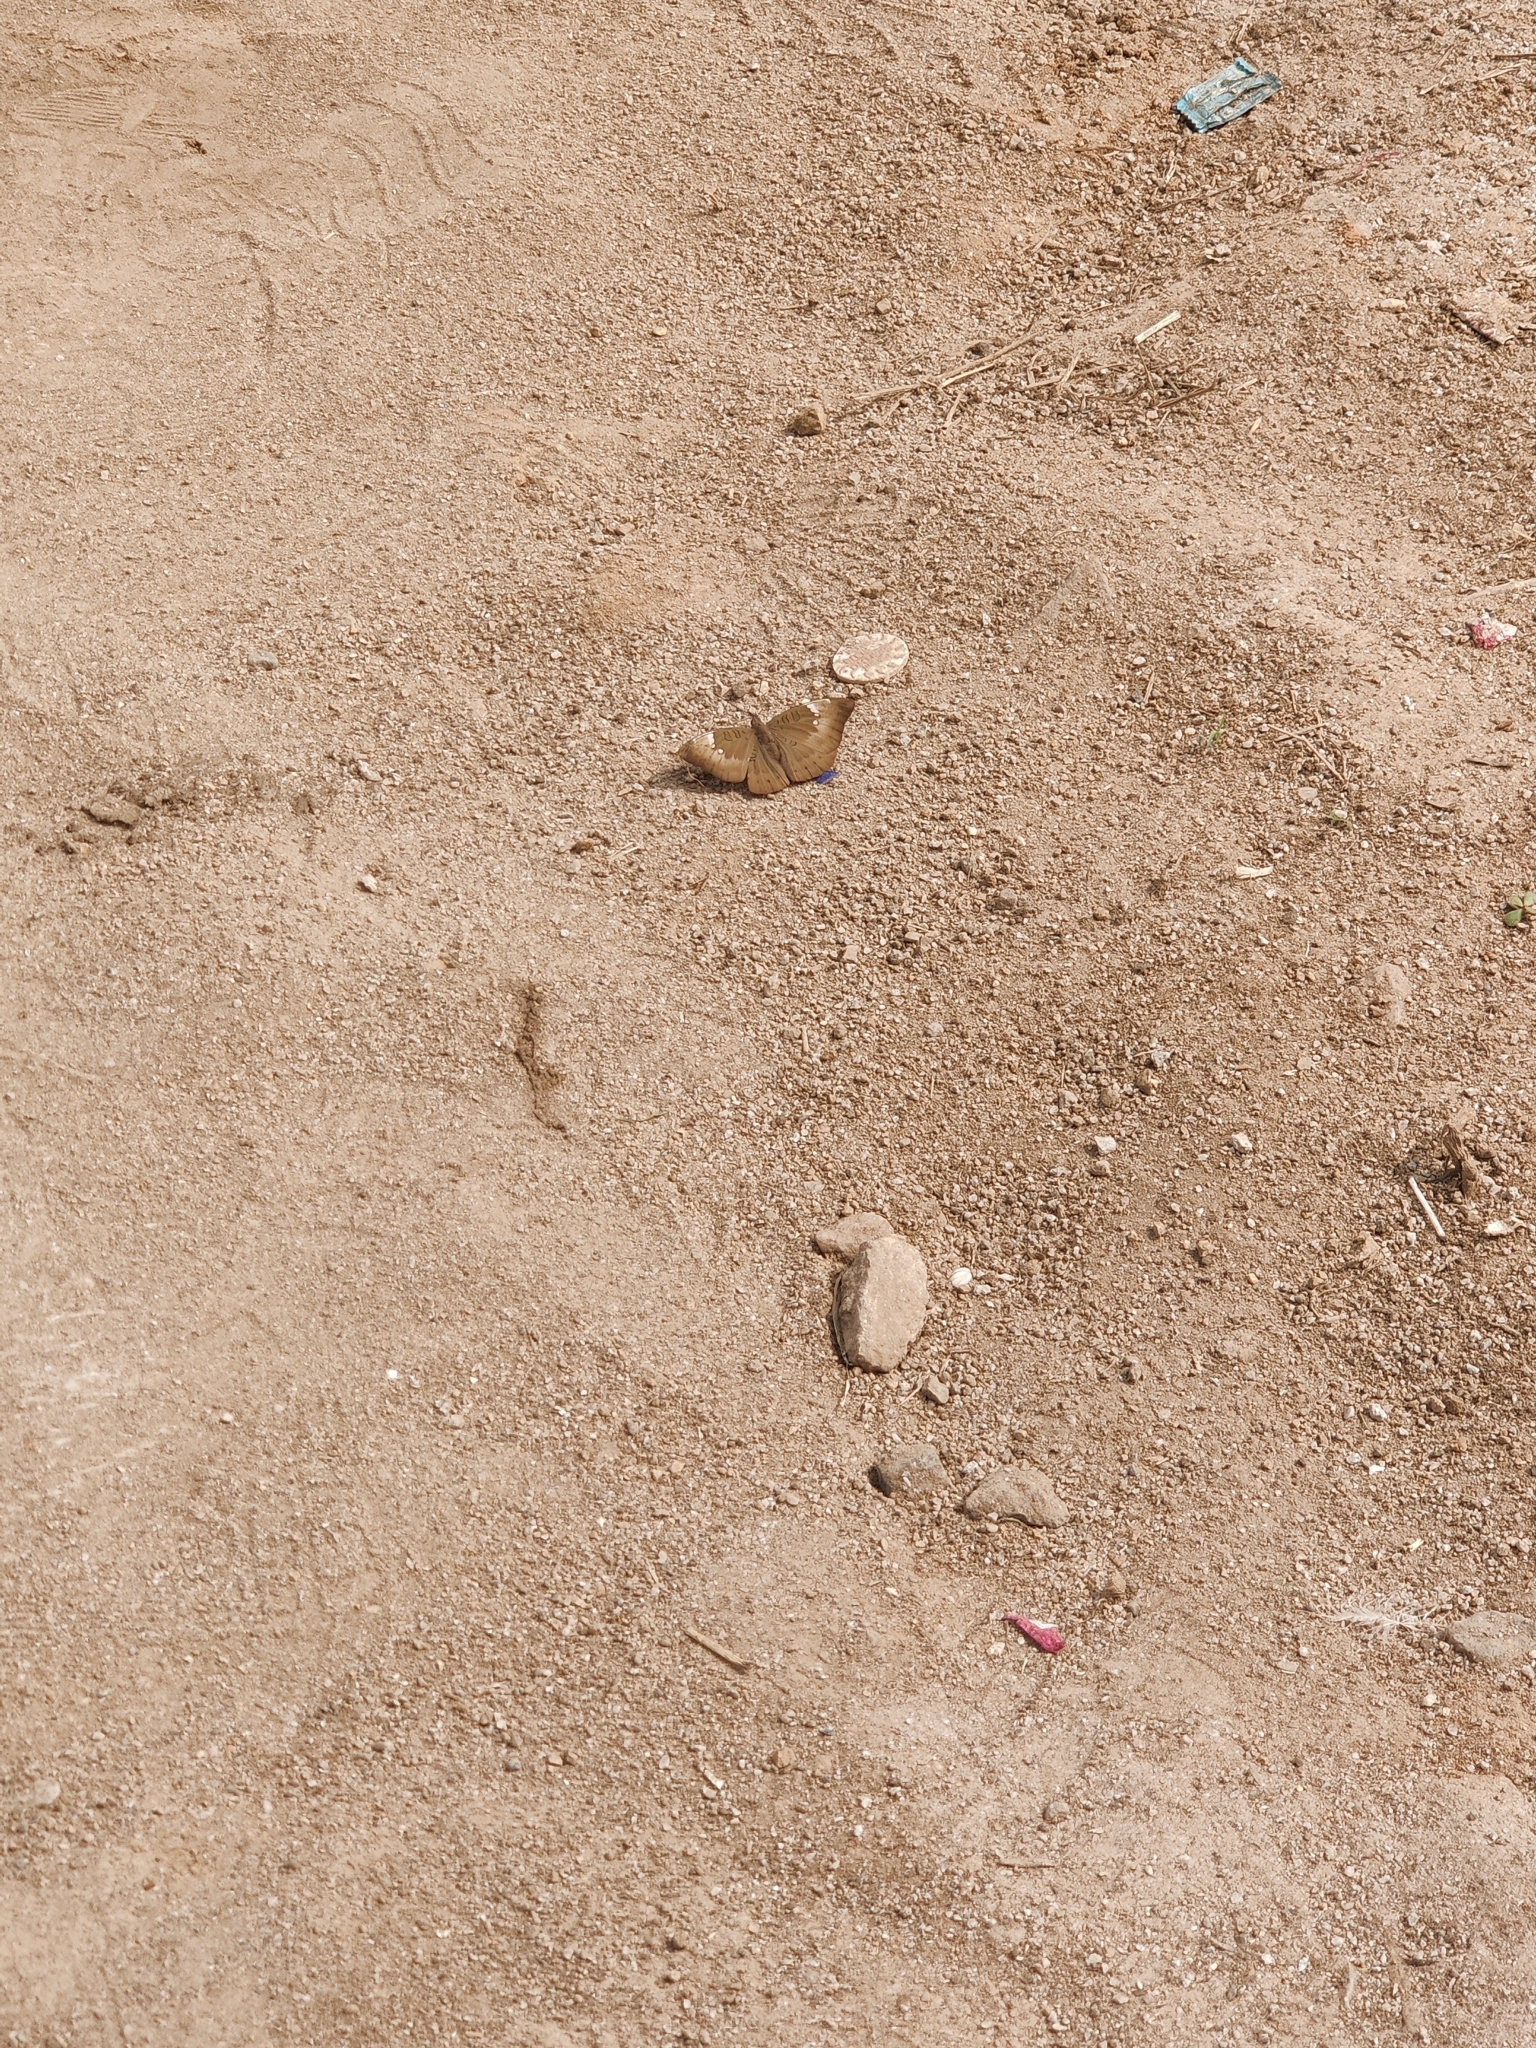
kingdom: Animalia
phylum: Arthropoda
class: Insecta
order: Lepidoptera
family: Nymphalidae
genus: Euthalia
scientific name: Euthalia aconthea
